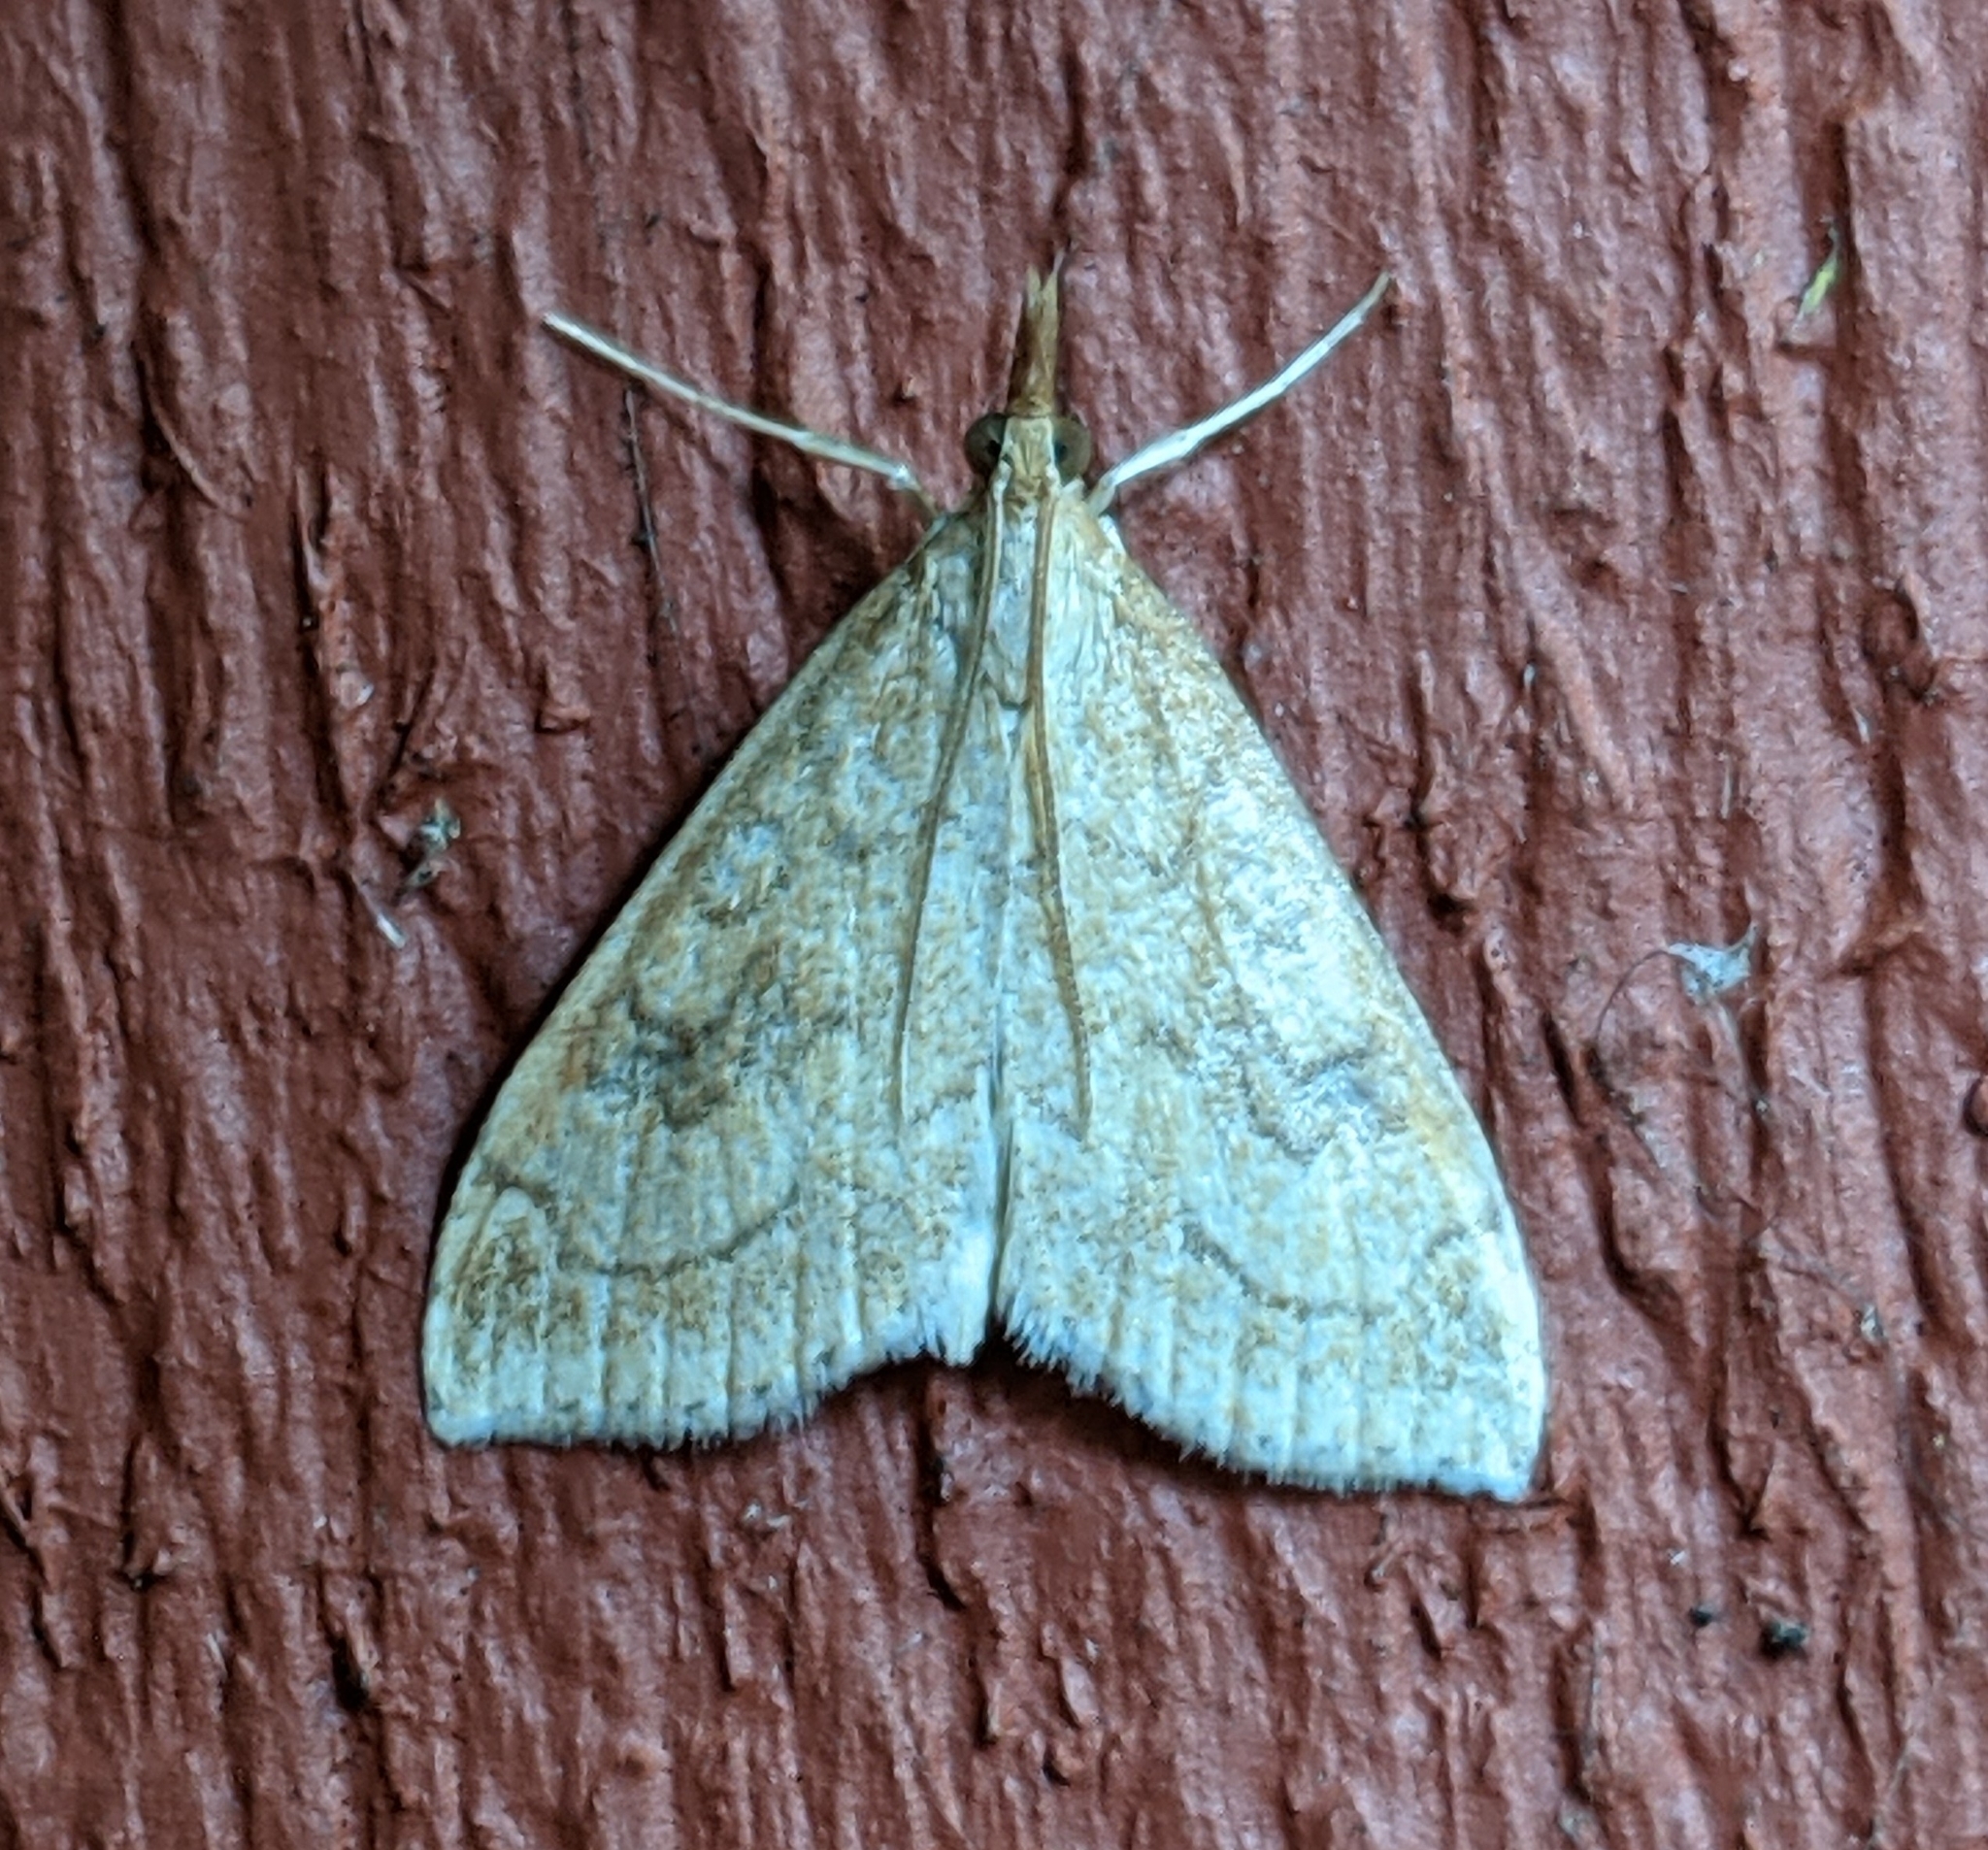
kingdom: Animalia
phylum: Arthropoda
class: Insecta
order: Lepidoptera
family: Crambidae
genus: Udea
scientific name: Udea profundalis
